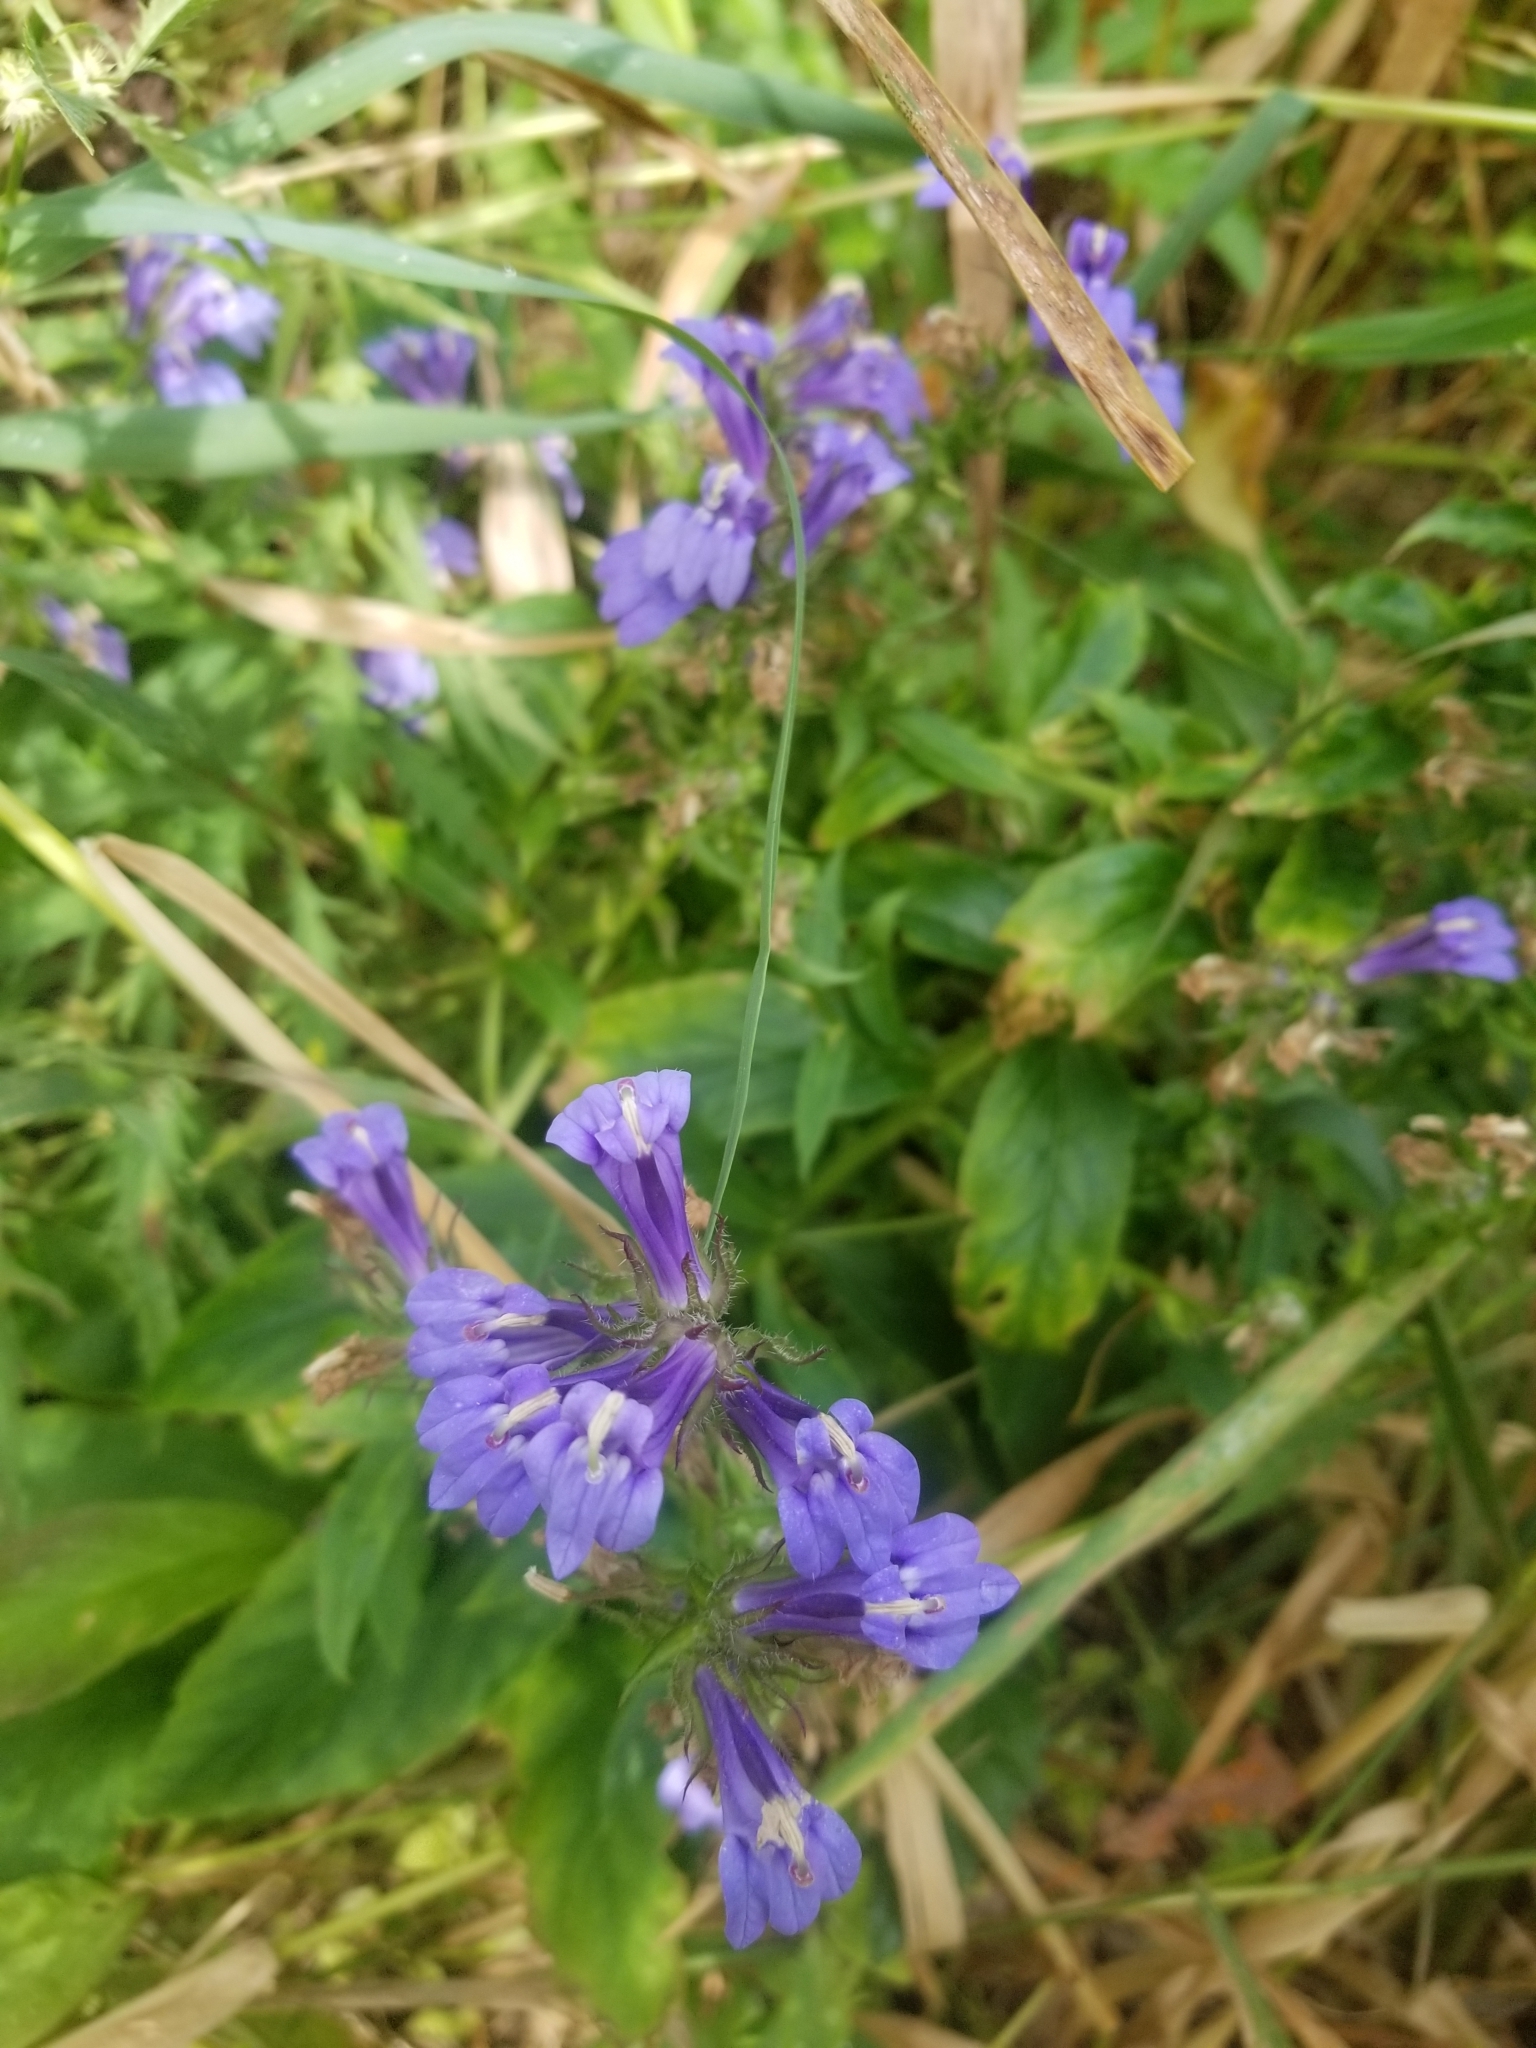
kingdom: Plantae
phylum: Tracheophyta
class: Magnoliopsida
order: Asterales
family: Campanulaceae
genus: Lobelia
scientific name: Lobelia siphilitica
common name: Great lobelia
